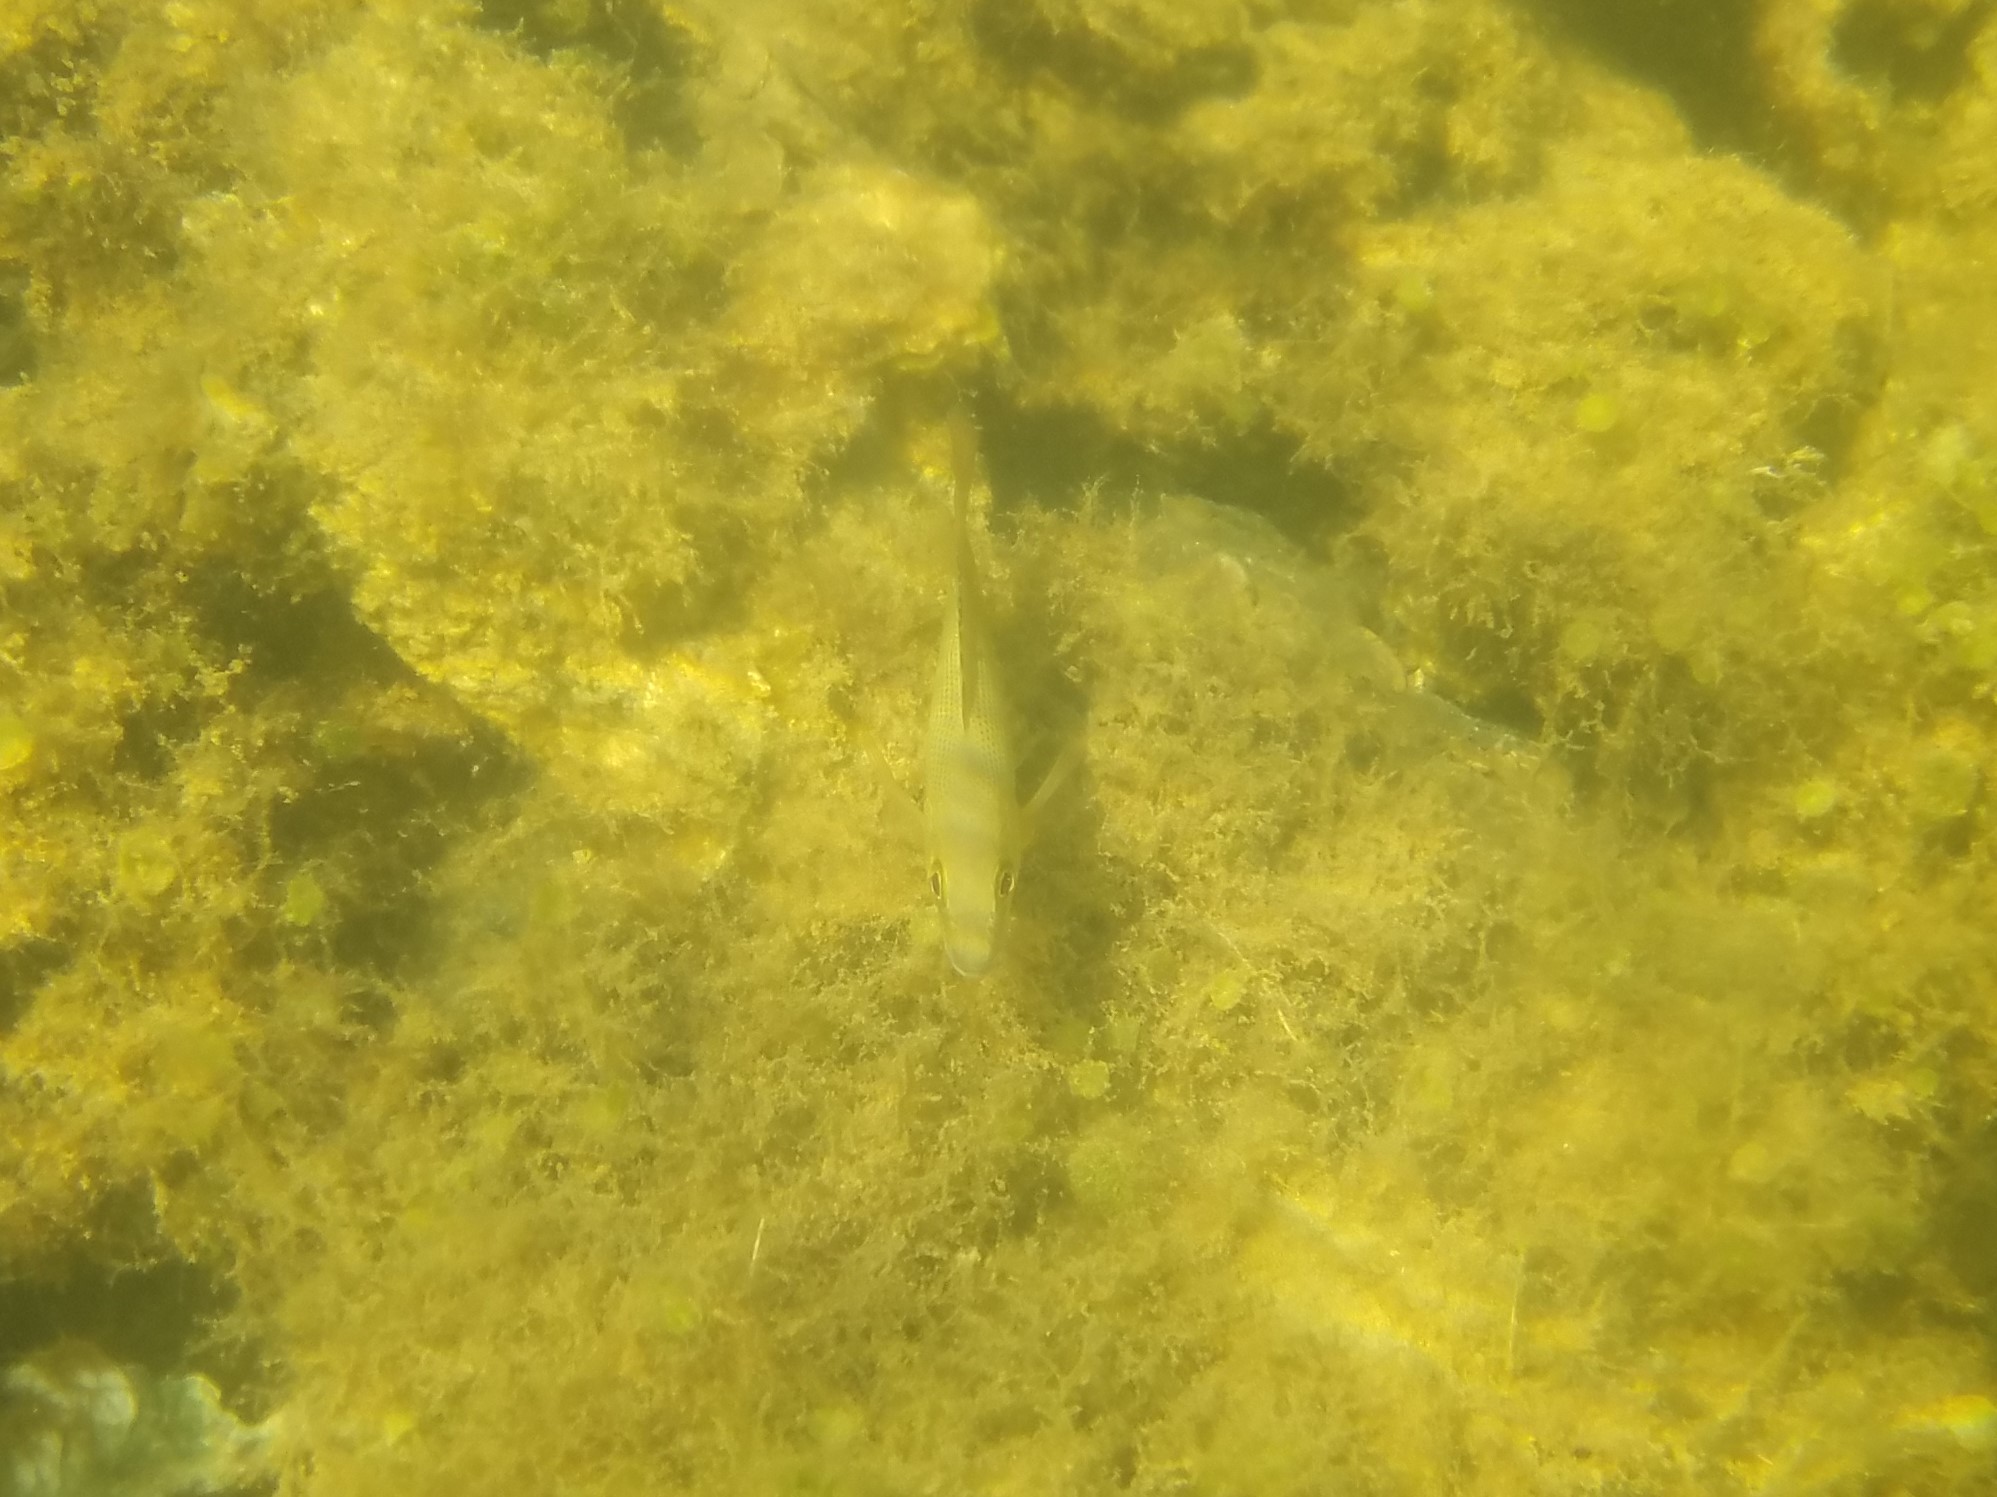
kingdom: Animalia
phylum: Chordata
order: Perciformes
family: Lutjanidae
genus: Lutjanus
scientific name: Lutjanus griseus
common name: Gray snapper
